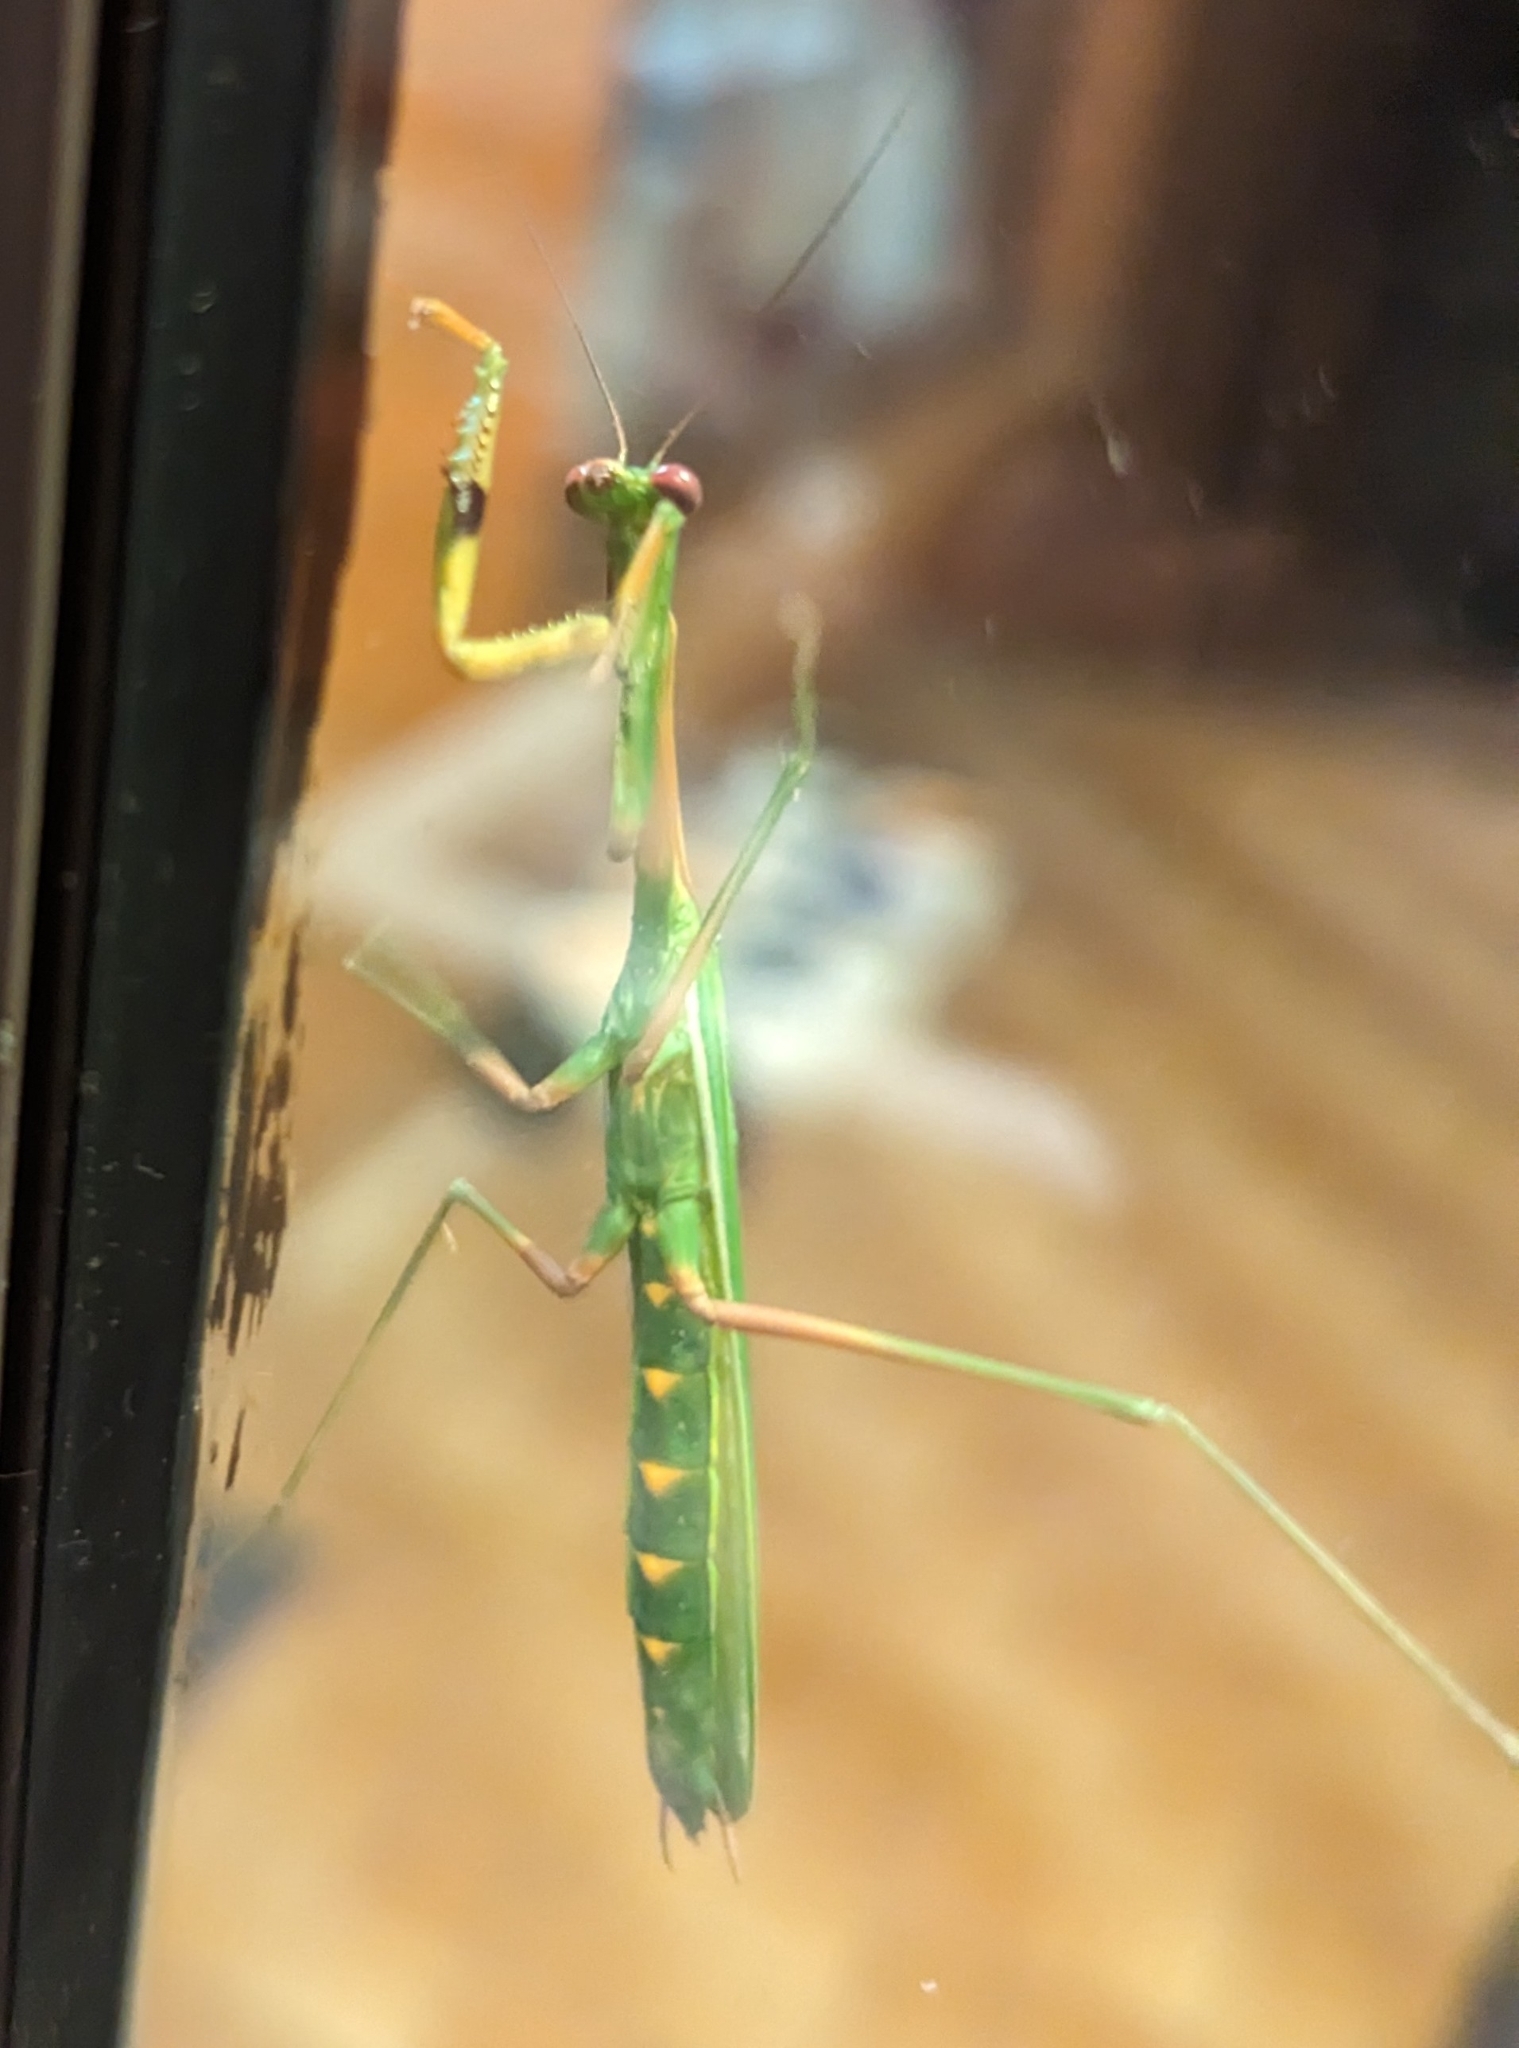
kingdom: Animalia
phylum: Arthropoda
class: Insecta
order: Mantodea
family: Mantidae
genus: Pseudomantis
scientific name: Pseudomantis albofimbriata
